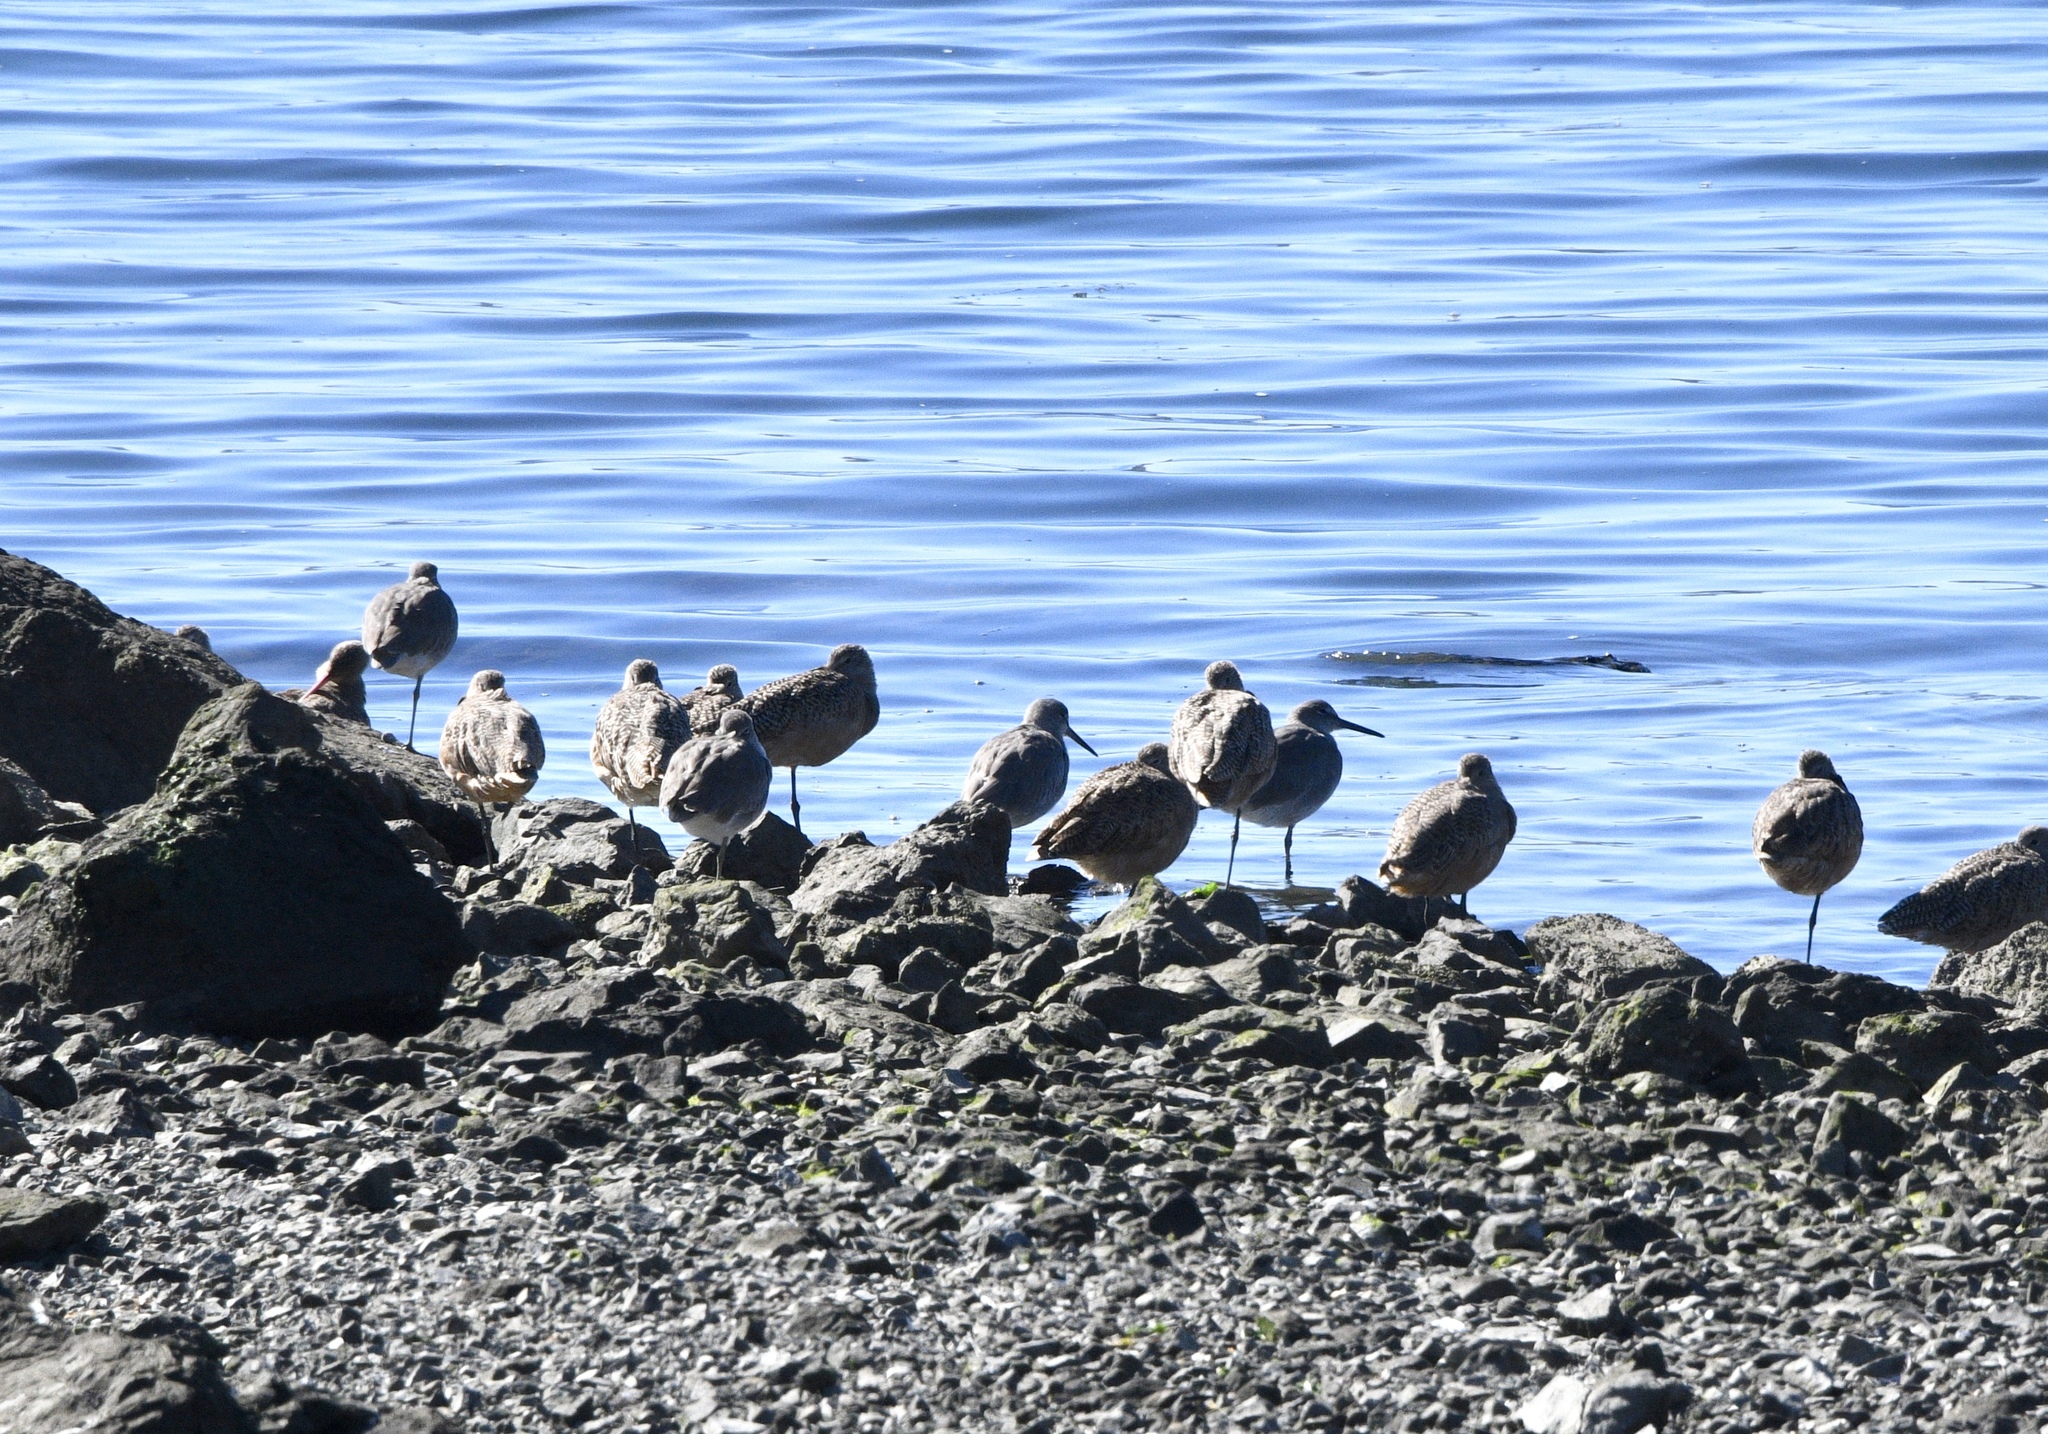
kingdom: Animalia
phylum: Chordata
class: Aves
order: Charadriiformes
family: Scolopacidae
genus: Limosa
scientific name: Limosa fedoa
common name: Marbled godwit
